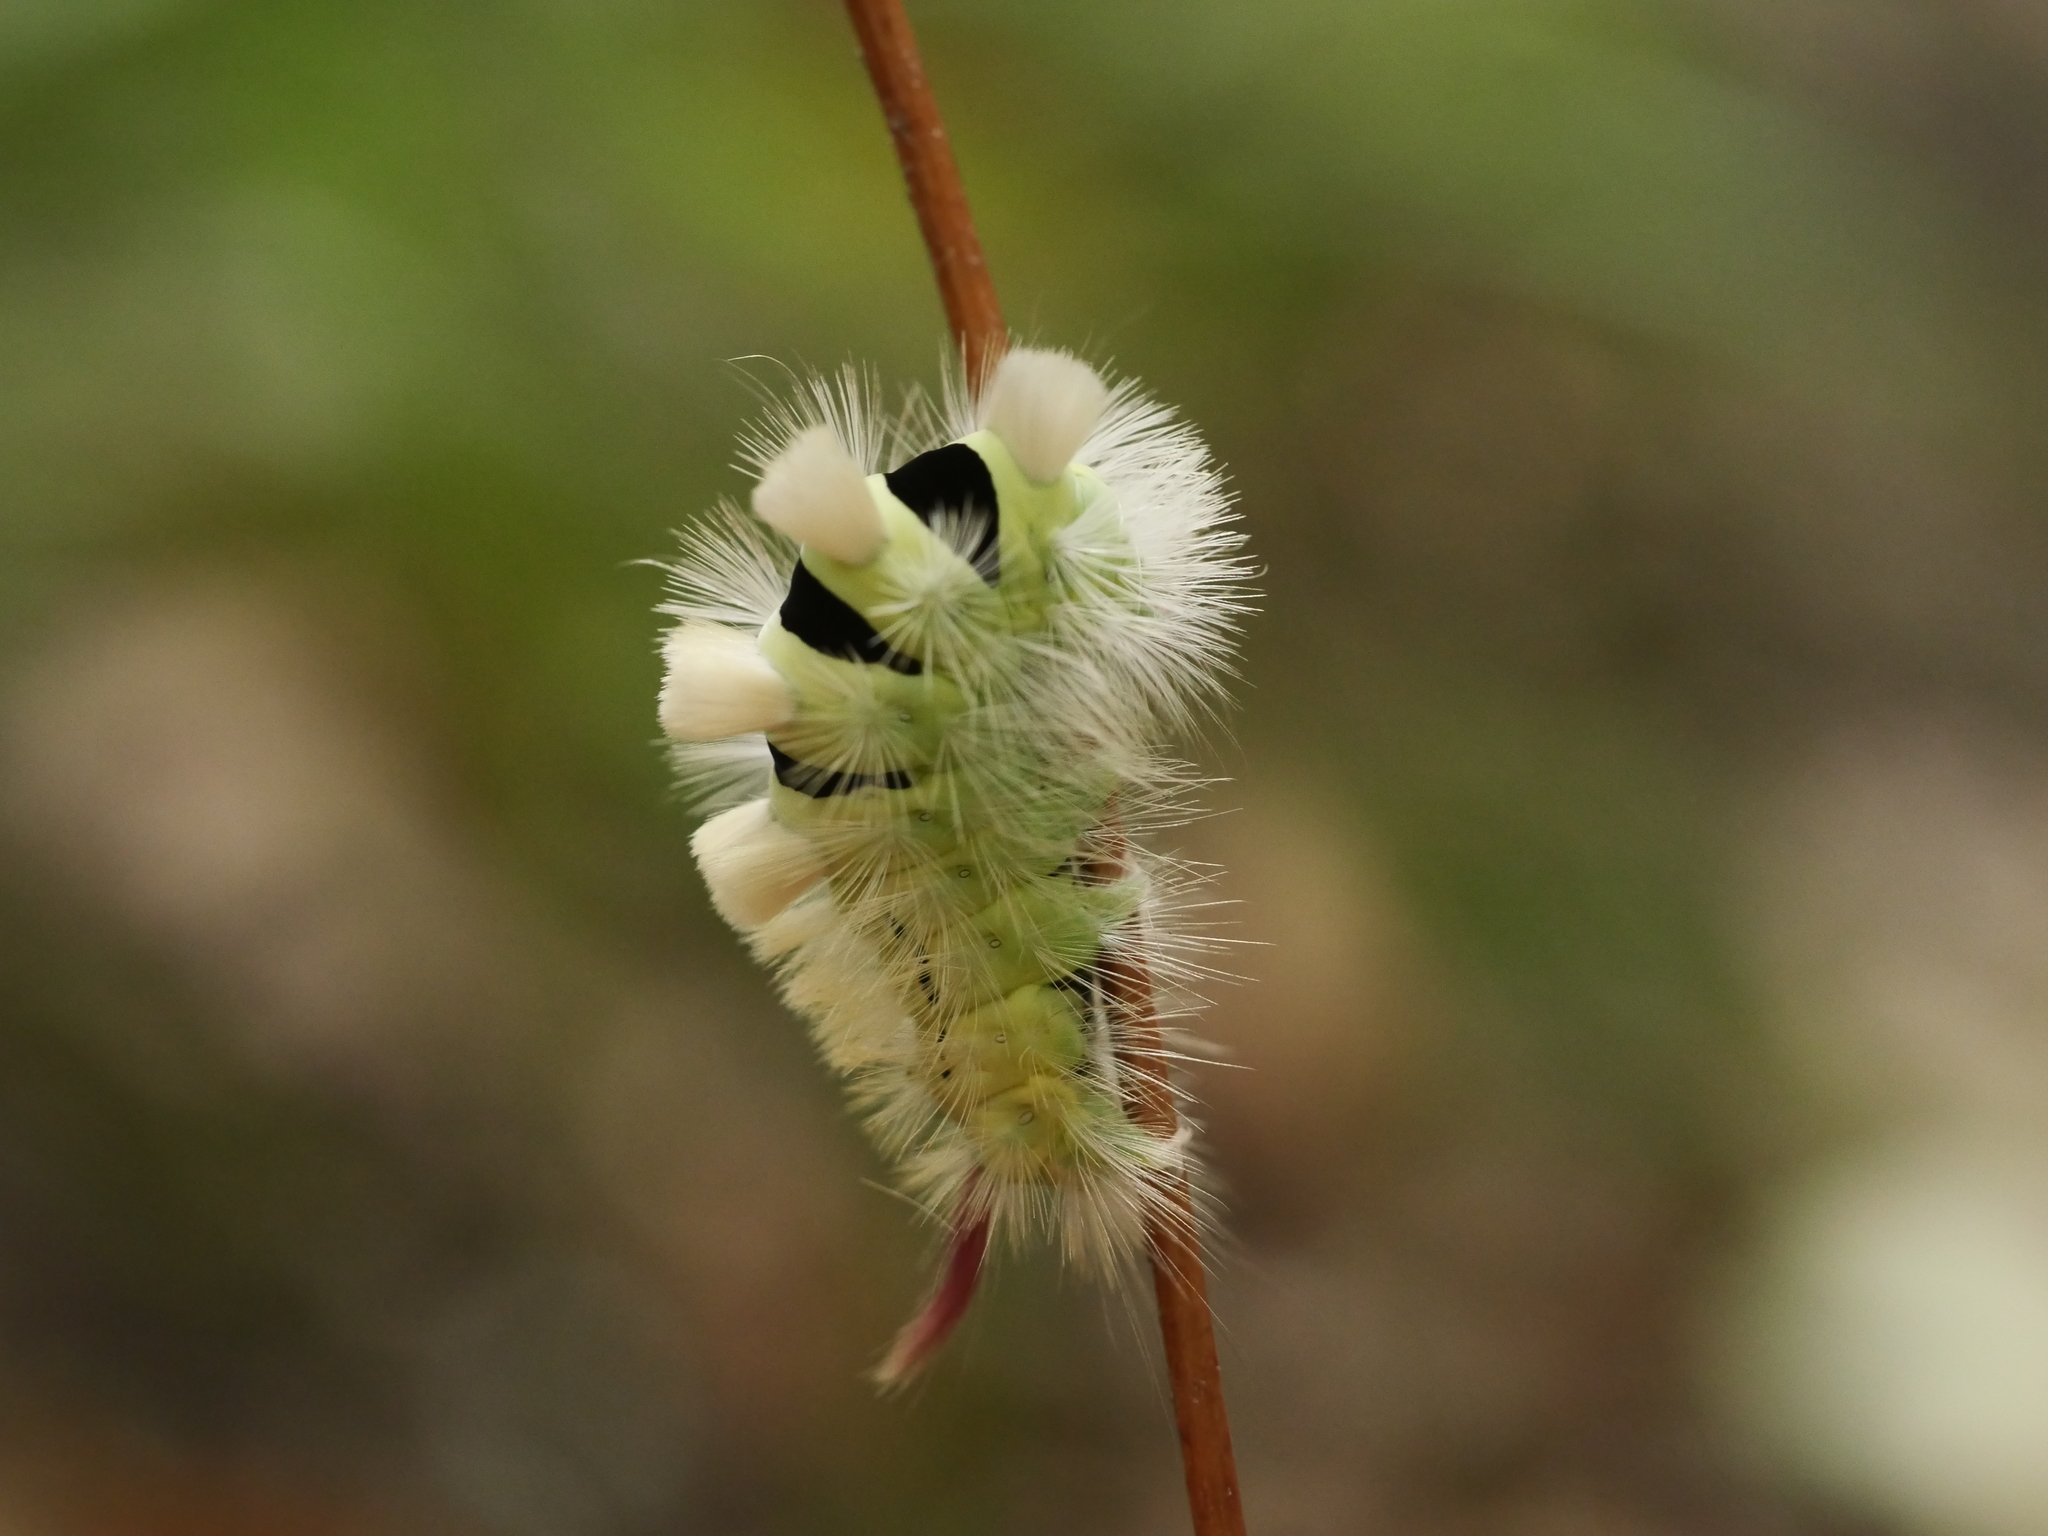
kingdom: Animalia
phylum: Arthropoda
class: Insecta
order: Lepidoptera
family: Erebidae
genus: Calliteara
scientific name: Calliteara pudibunda
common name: Pale tussock
